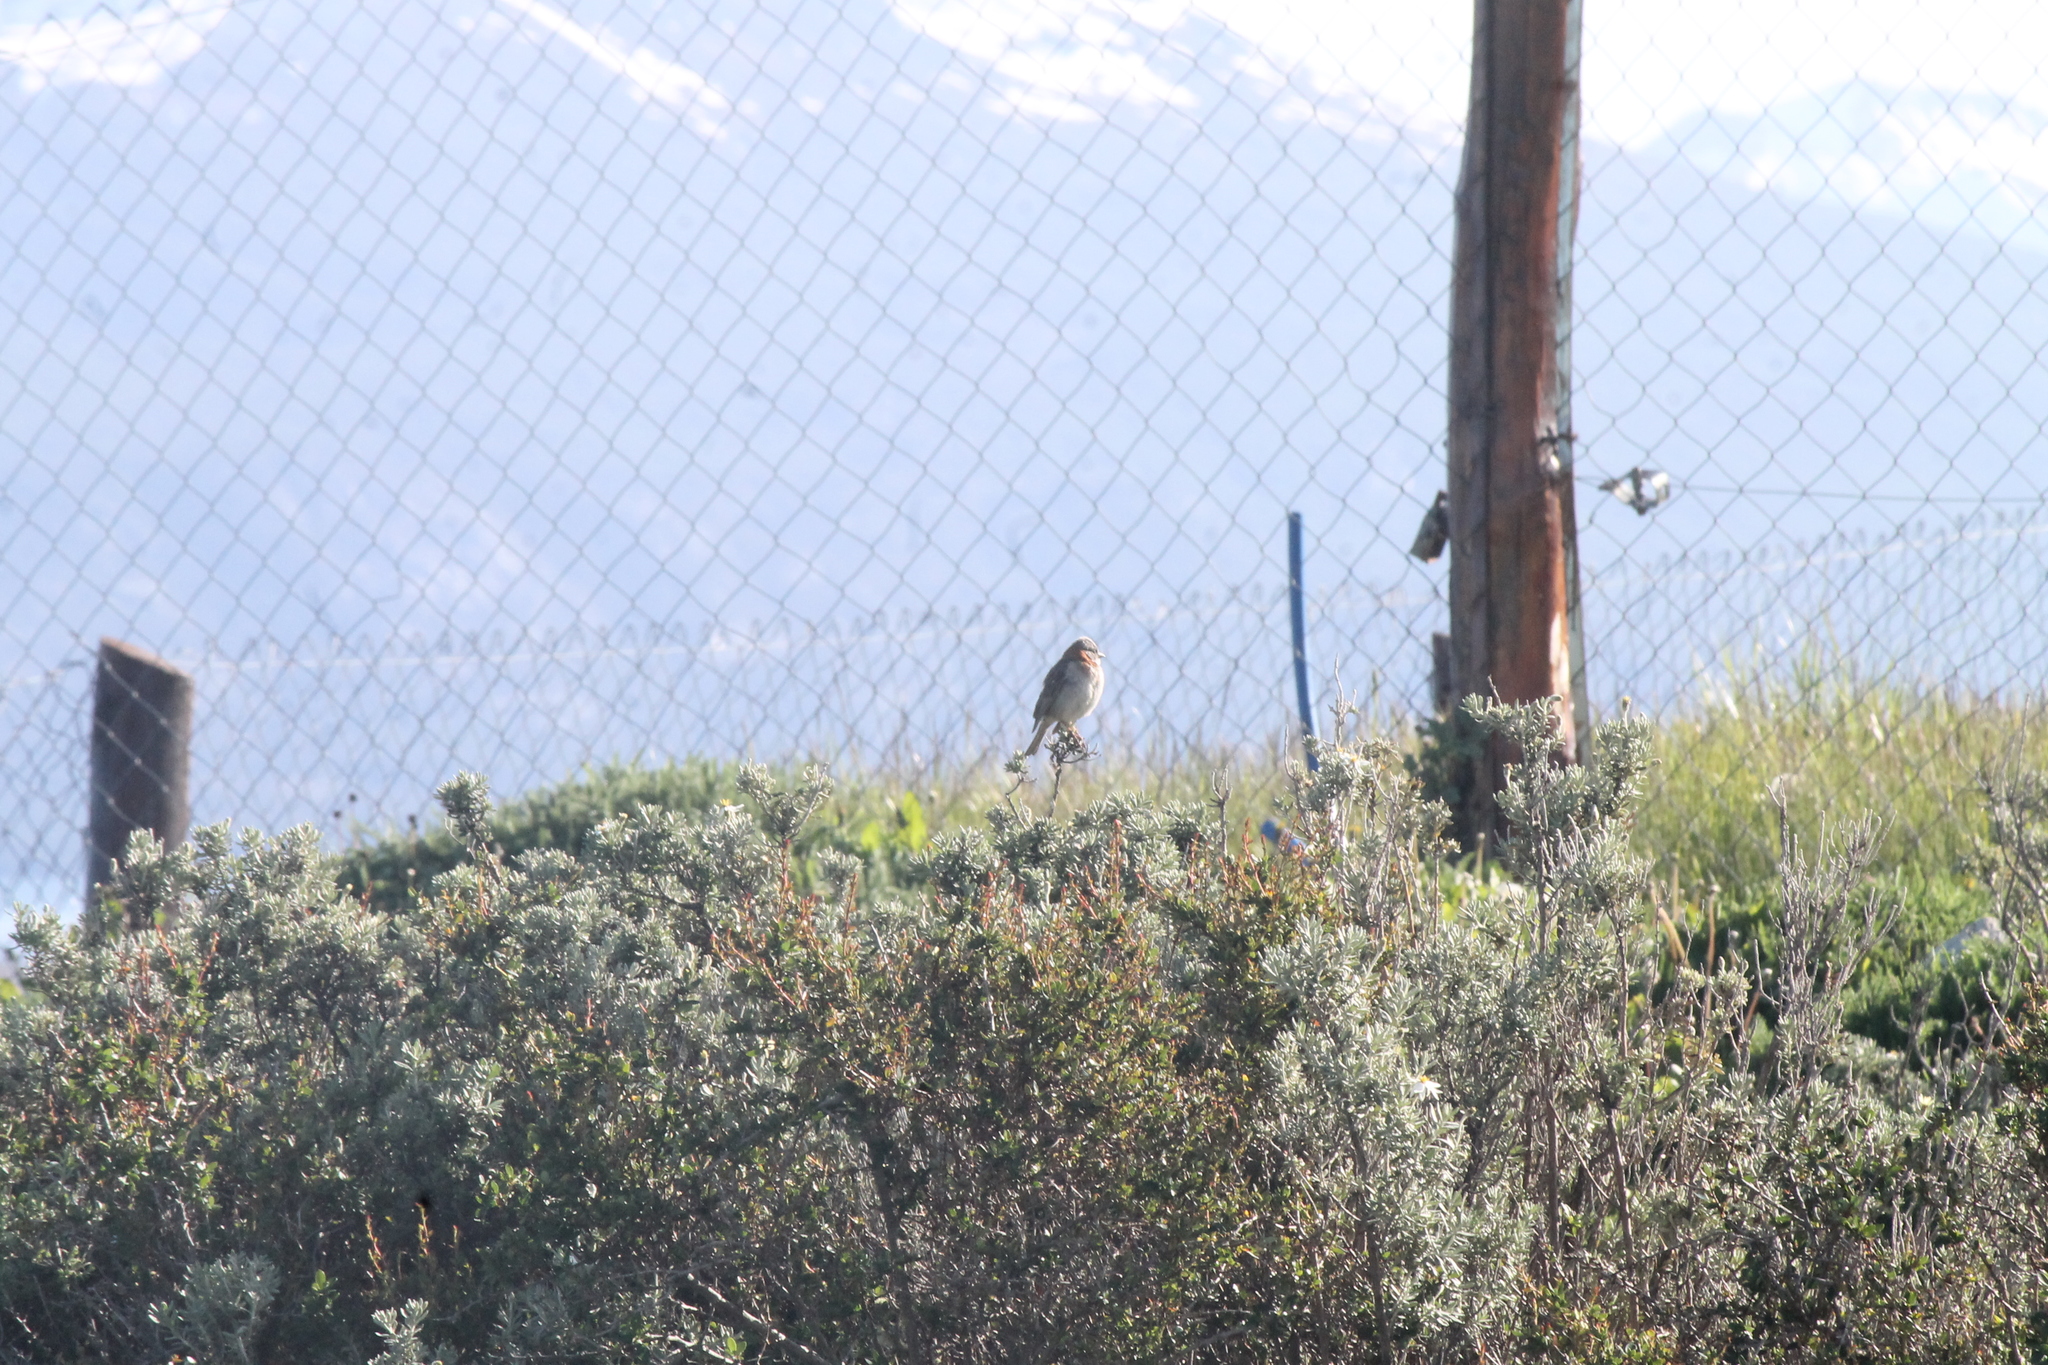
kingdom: Animalia
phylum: Chordata
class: Aves
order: Passeriformes
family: Passerellidae
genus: Zonotrichia
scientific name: Zonotrichia capensis
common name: Rufous-collared sparrow
